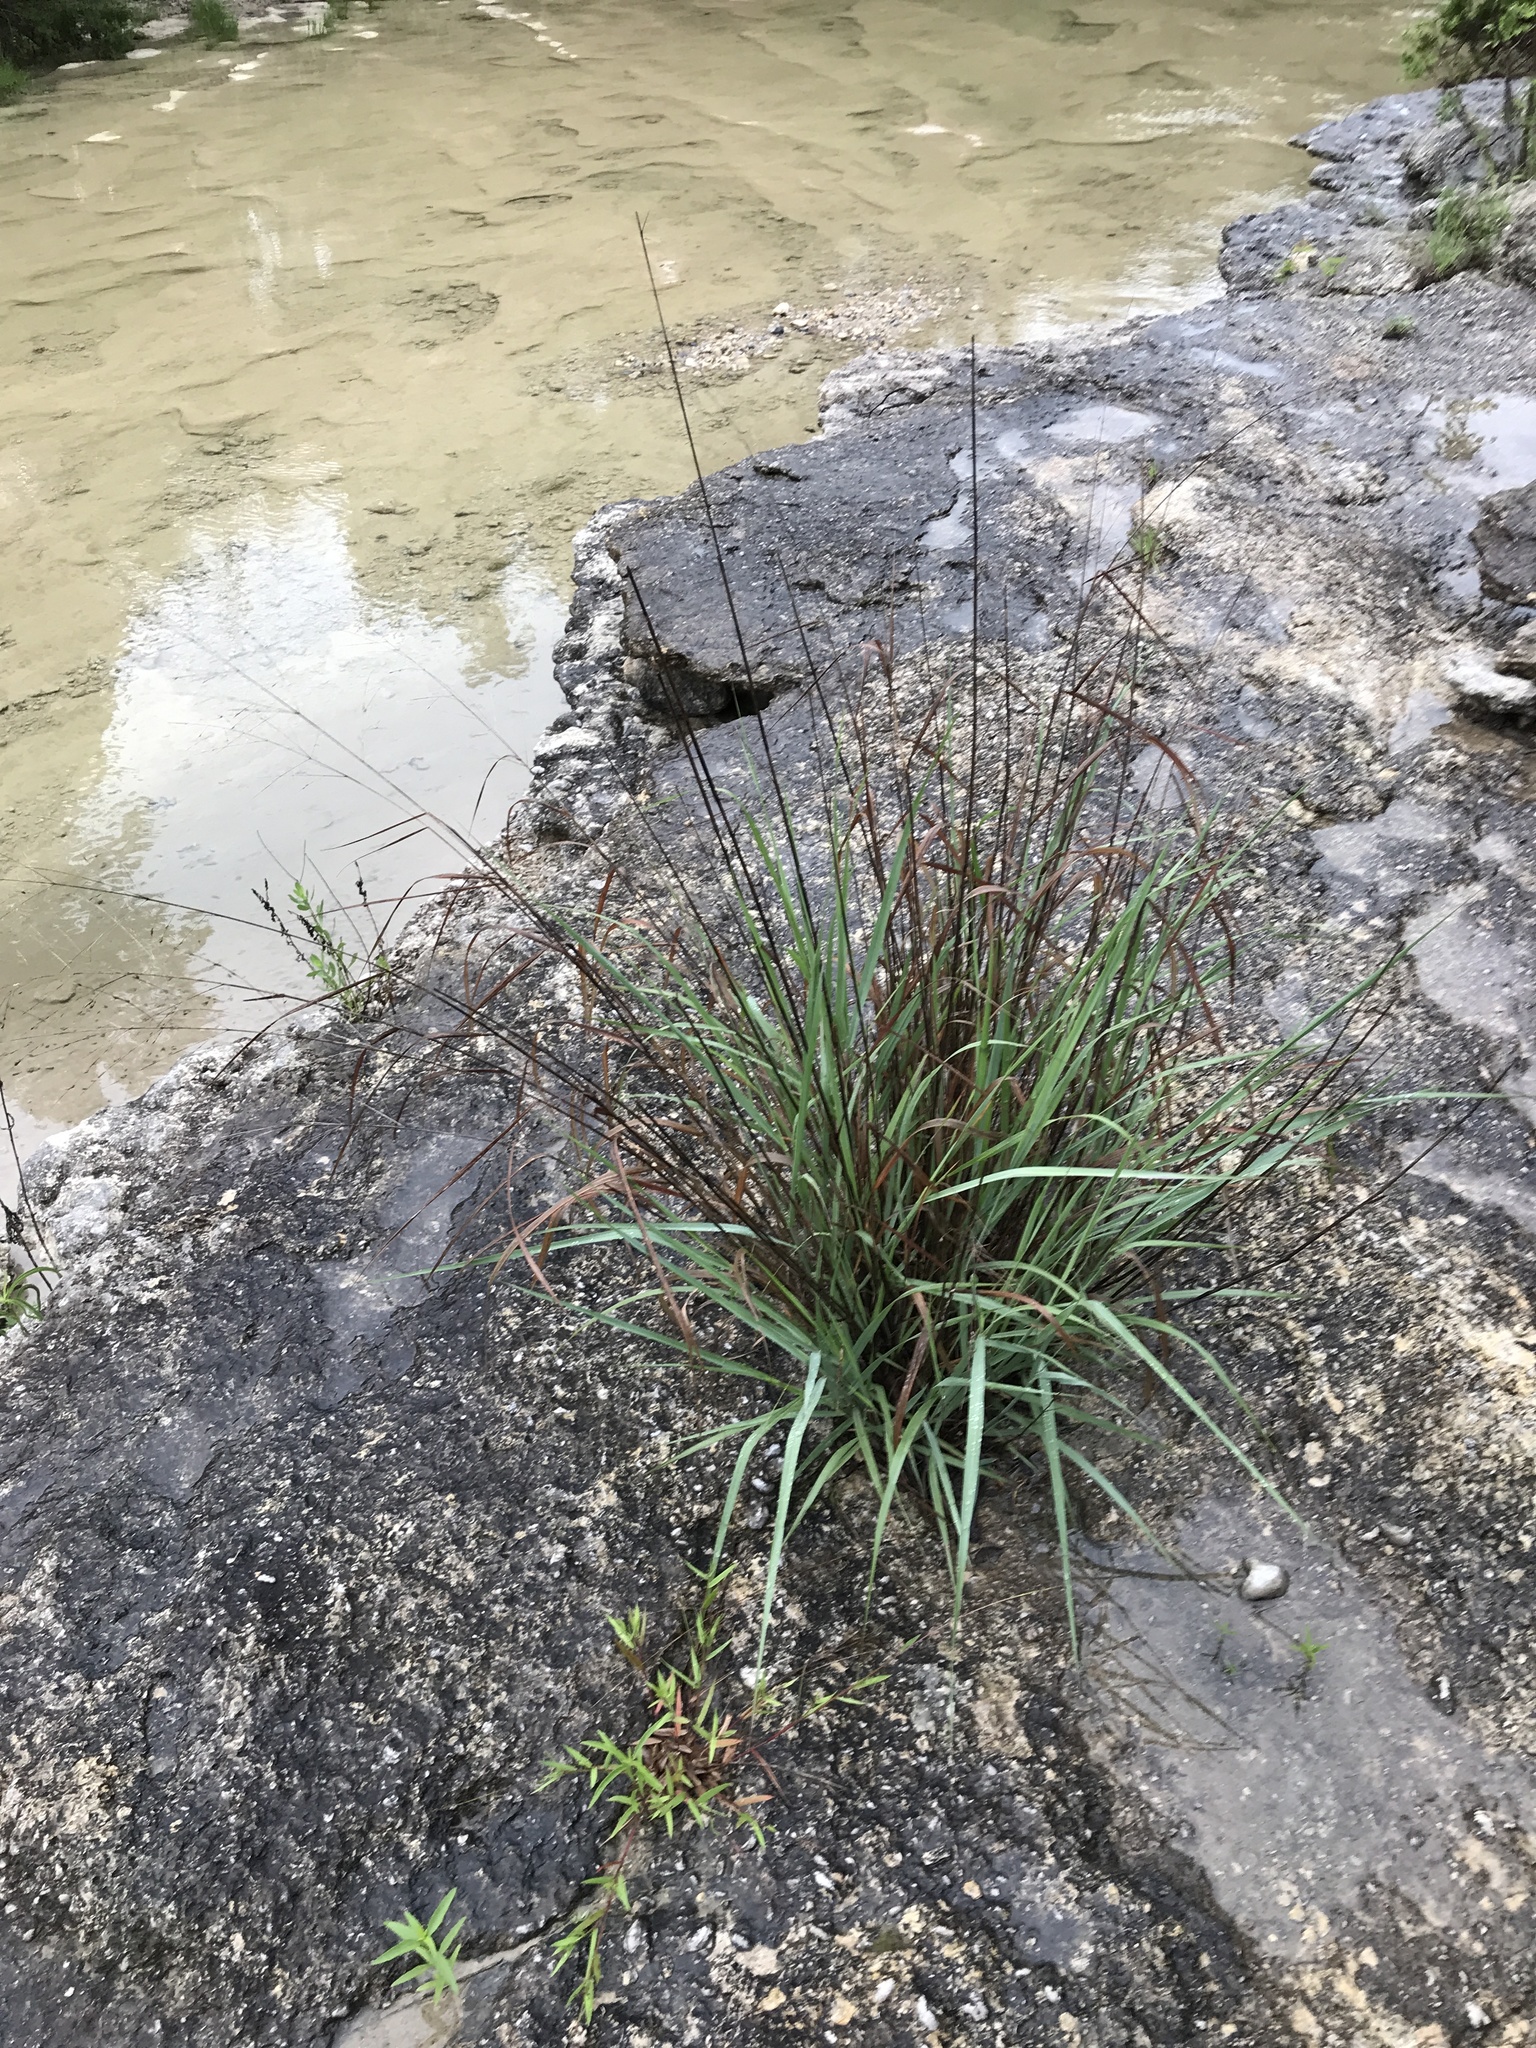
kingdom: Plantae
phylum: Tracheophyta
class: Liliopsida
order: Poales
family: Poaceae
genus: Panicum
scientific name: Panicum virgatum
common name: Switchgrass
